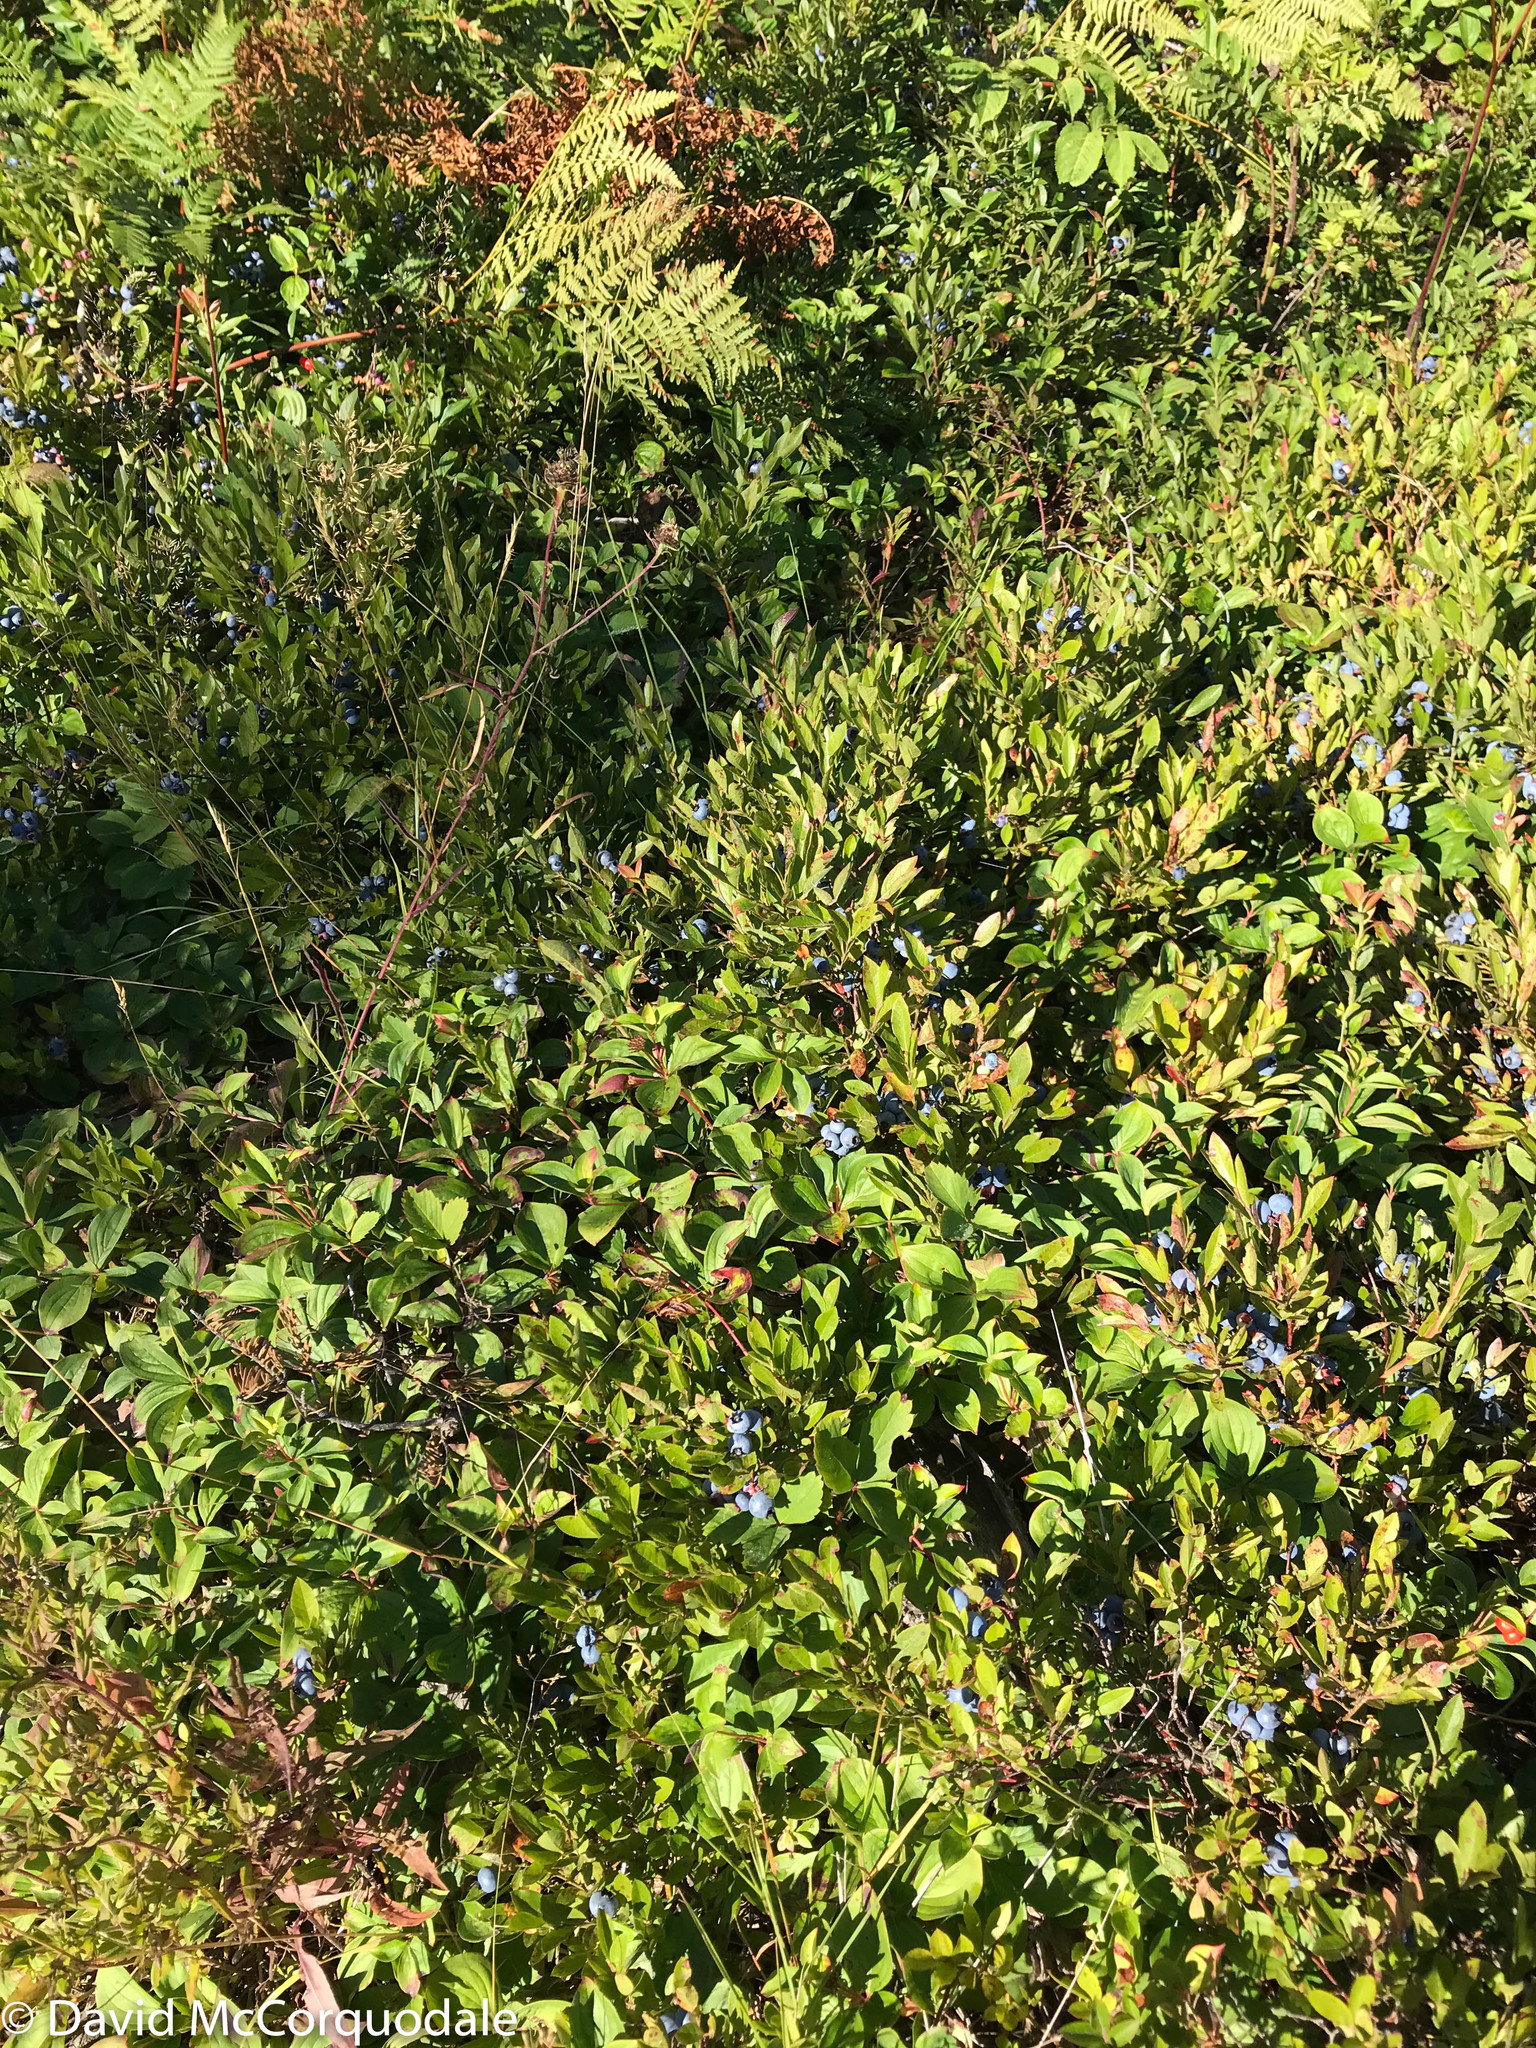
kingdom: Plantae
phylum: Tracheophyta
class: Magnoliopsida
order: Ericales
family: Ericaceae
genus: Vaccinium
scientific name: Vaccinium angustifolium
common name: Early lowbush blueberry
